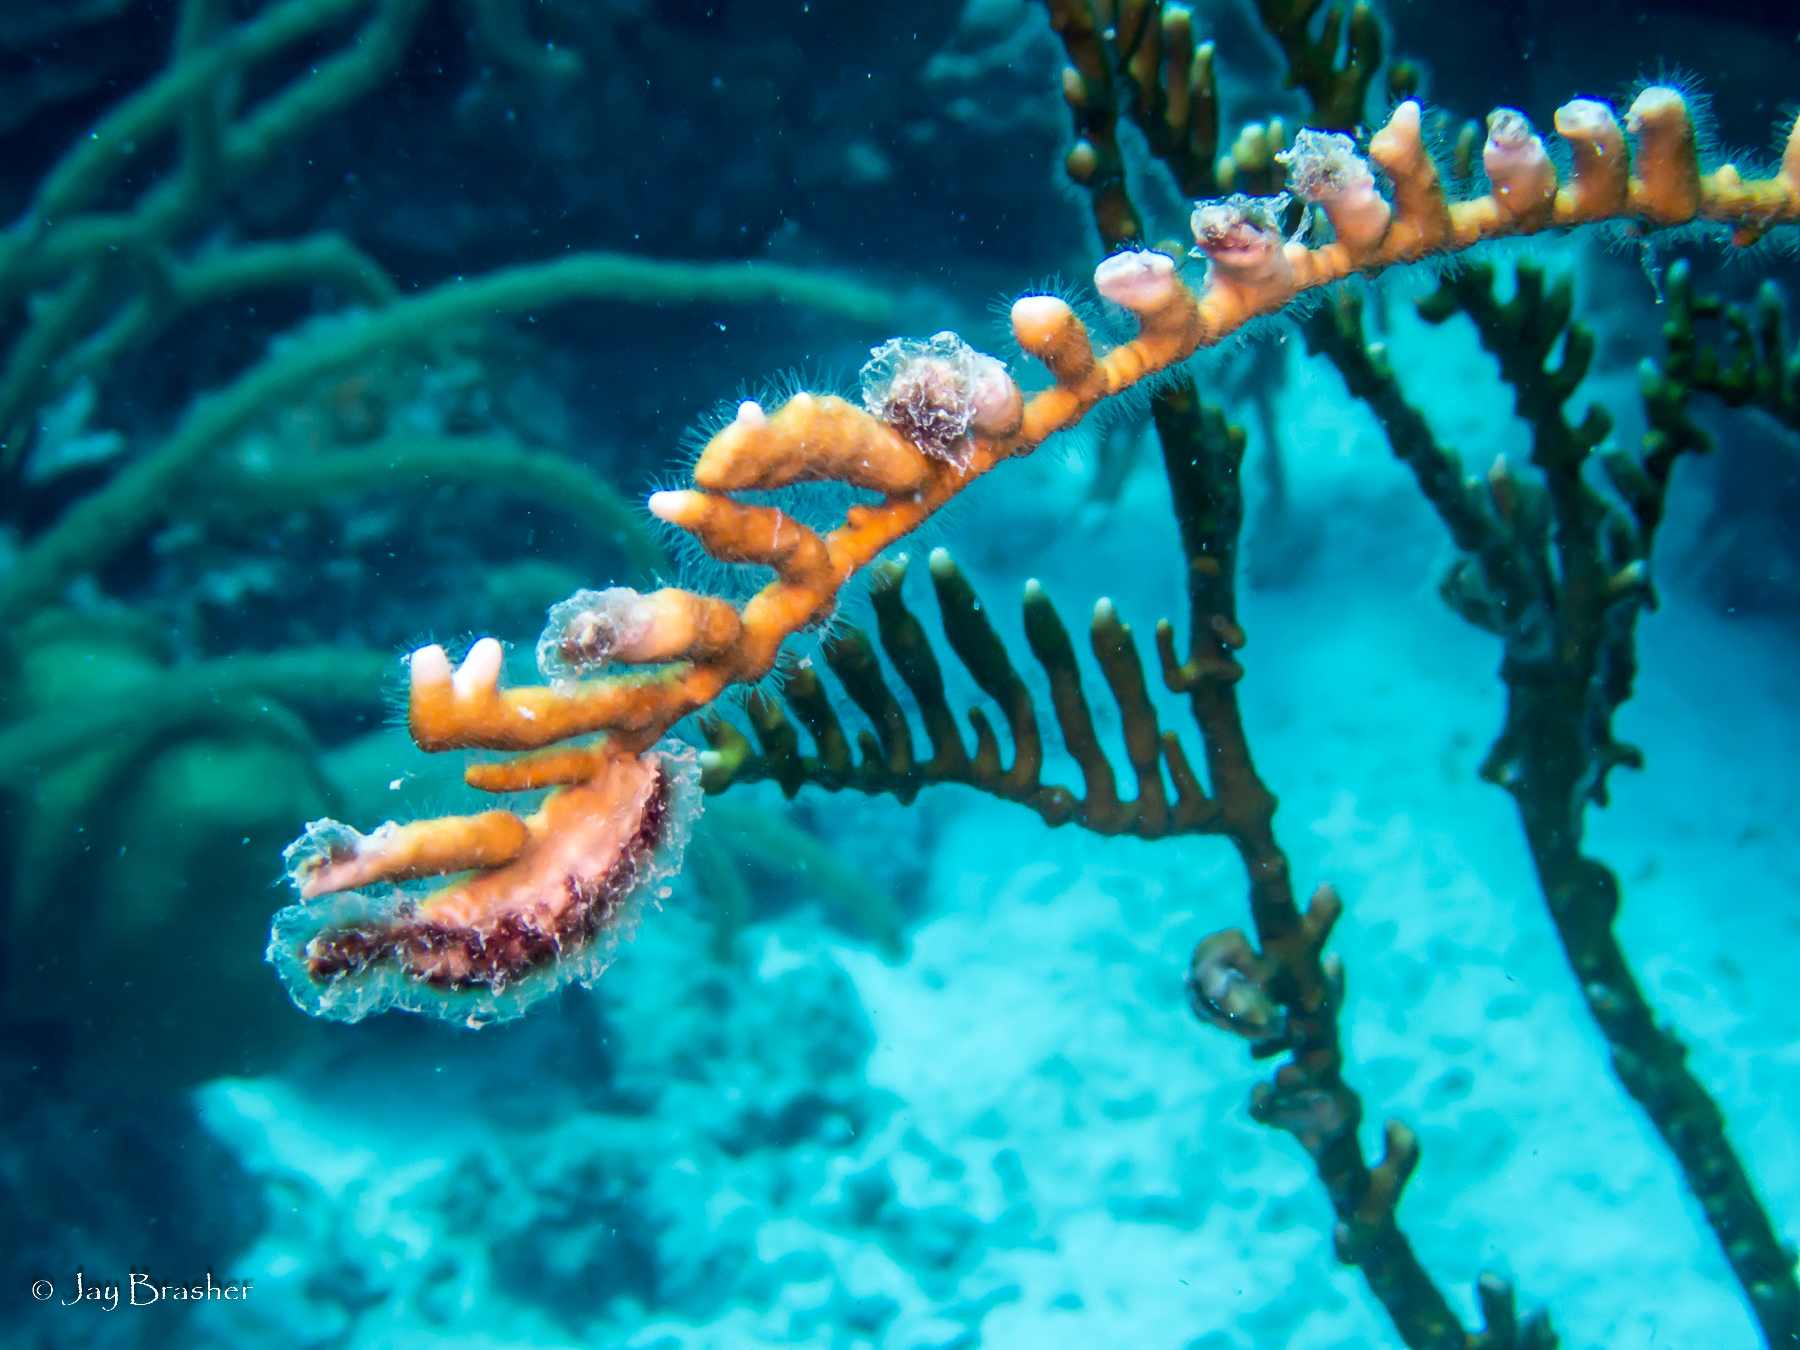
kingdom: Animalia
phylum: Cnidaria
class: Hydrozoa
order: Anthoathecata
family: Milleporidae
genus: Millepora
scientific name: Millepora alcicornis
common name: Branching fire coral
